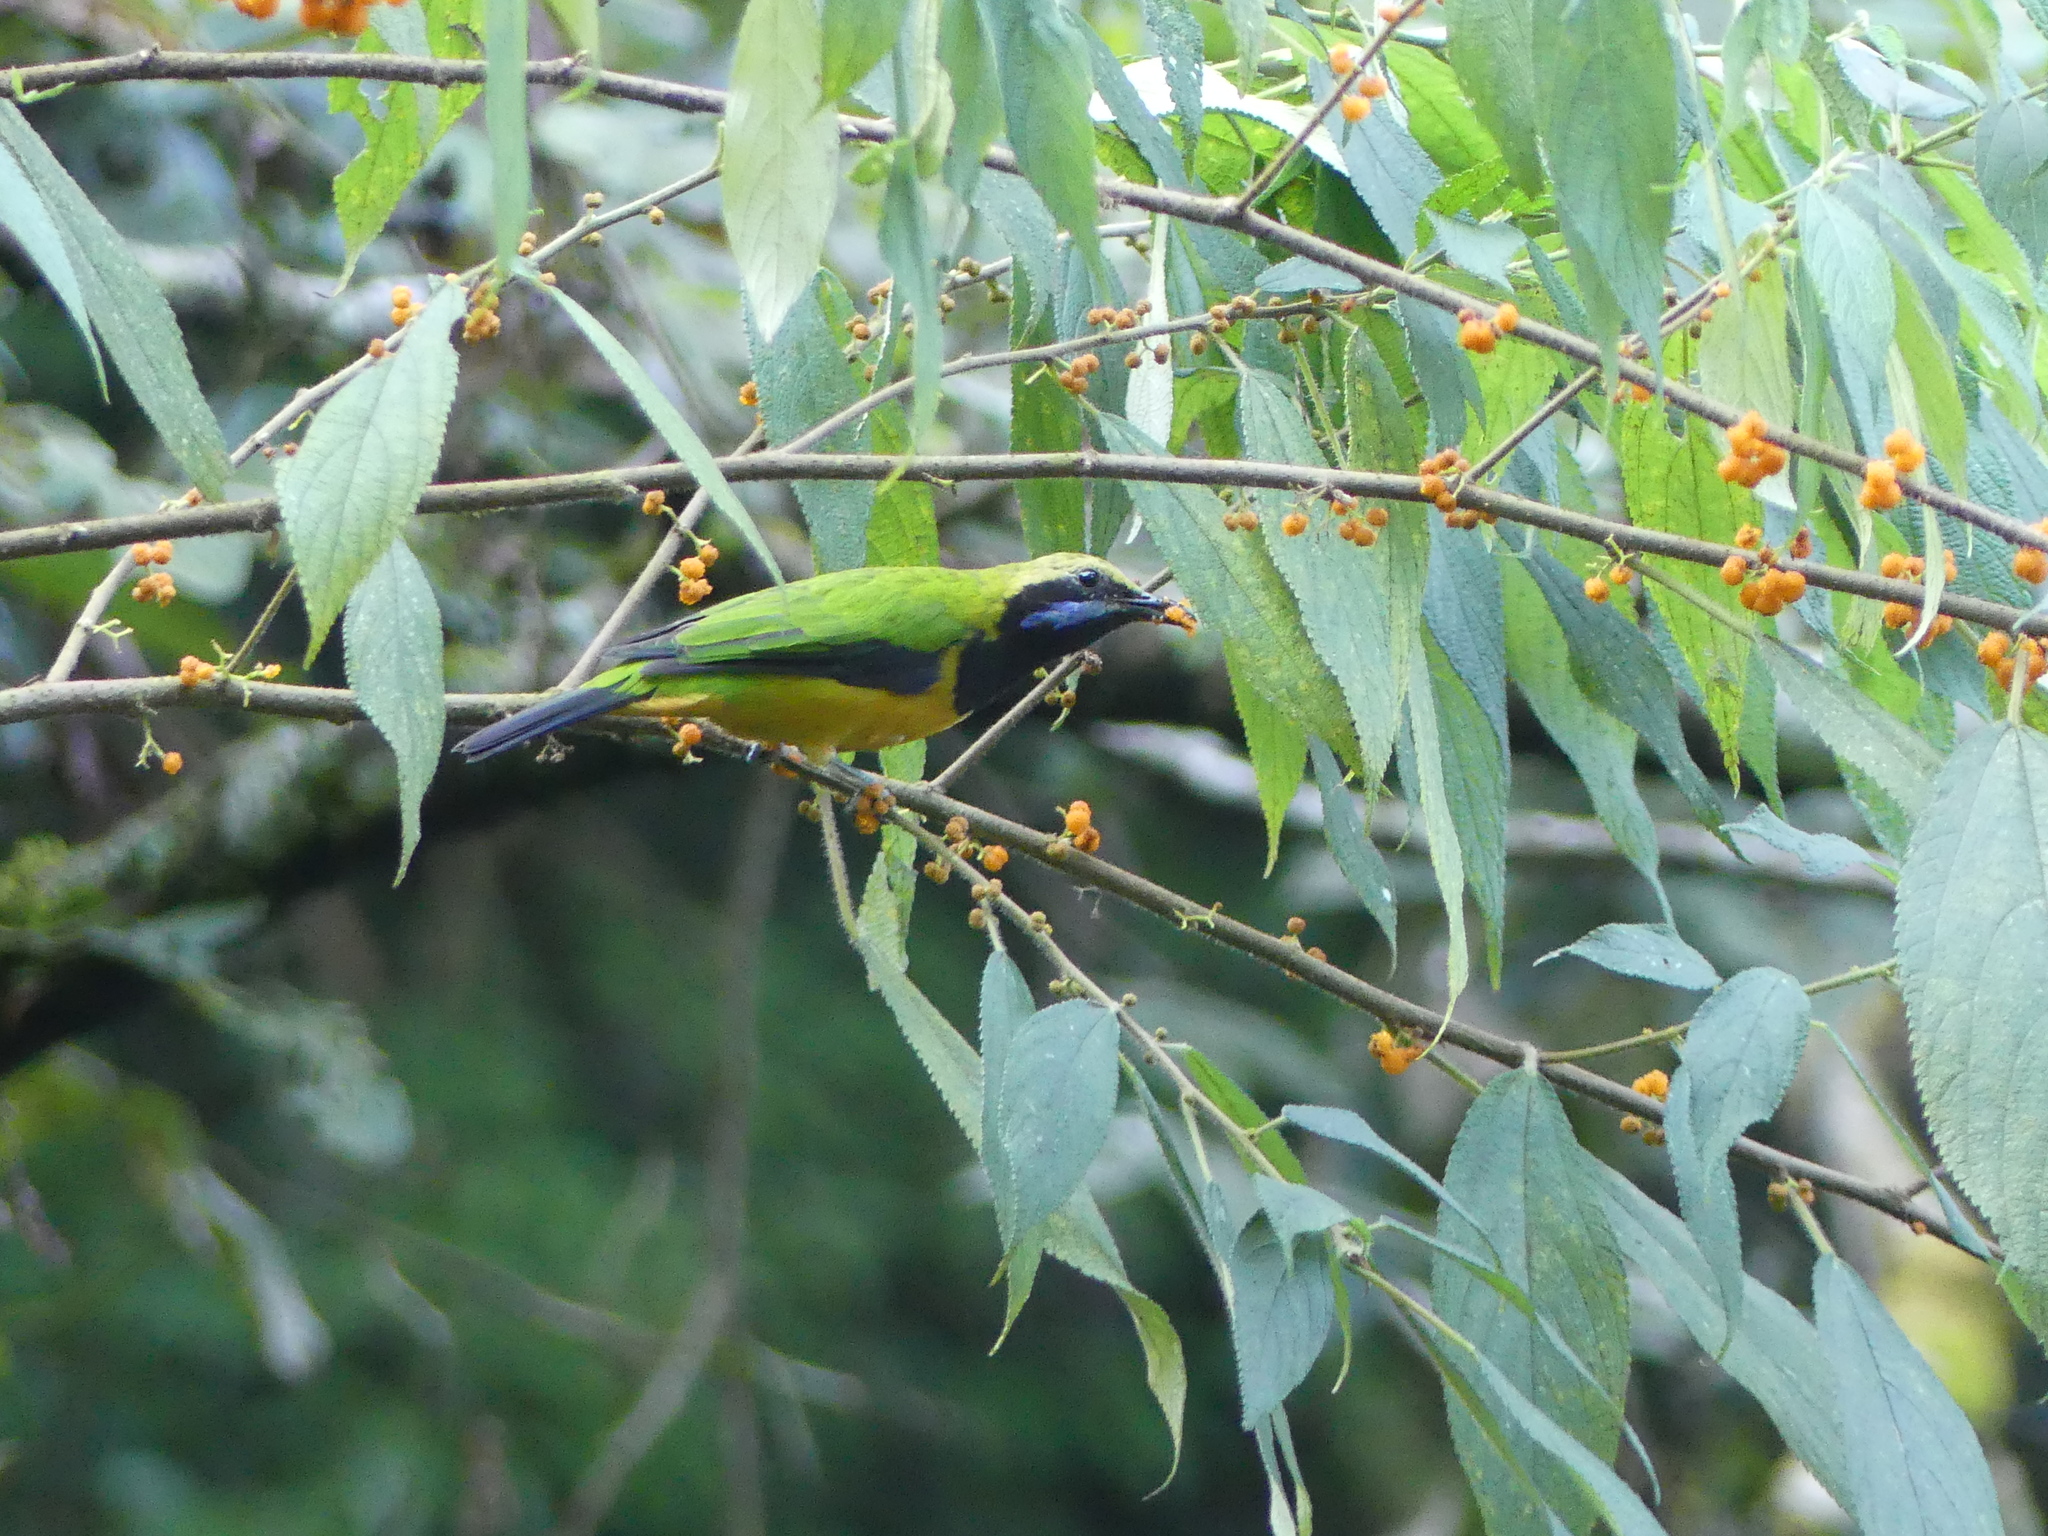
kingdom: Animalia
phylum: Chordata
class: Aves
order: Passeriformes
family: Chloropseidae
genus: Chloropsis
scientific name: Chloropsis hardwickii
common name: Orange-bellied leafbird
